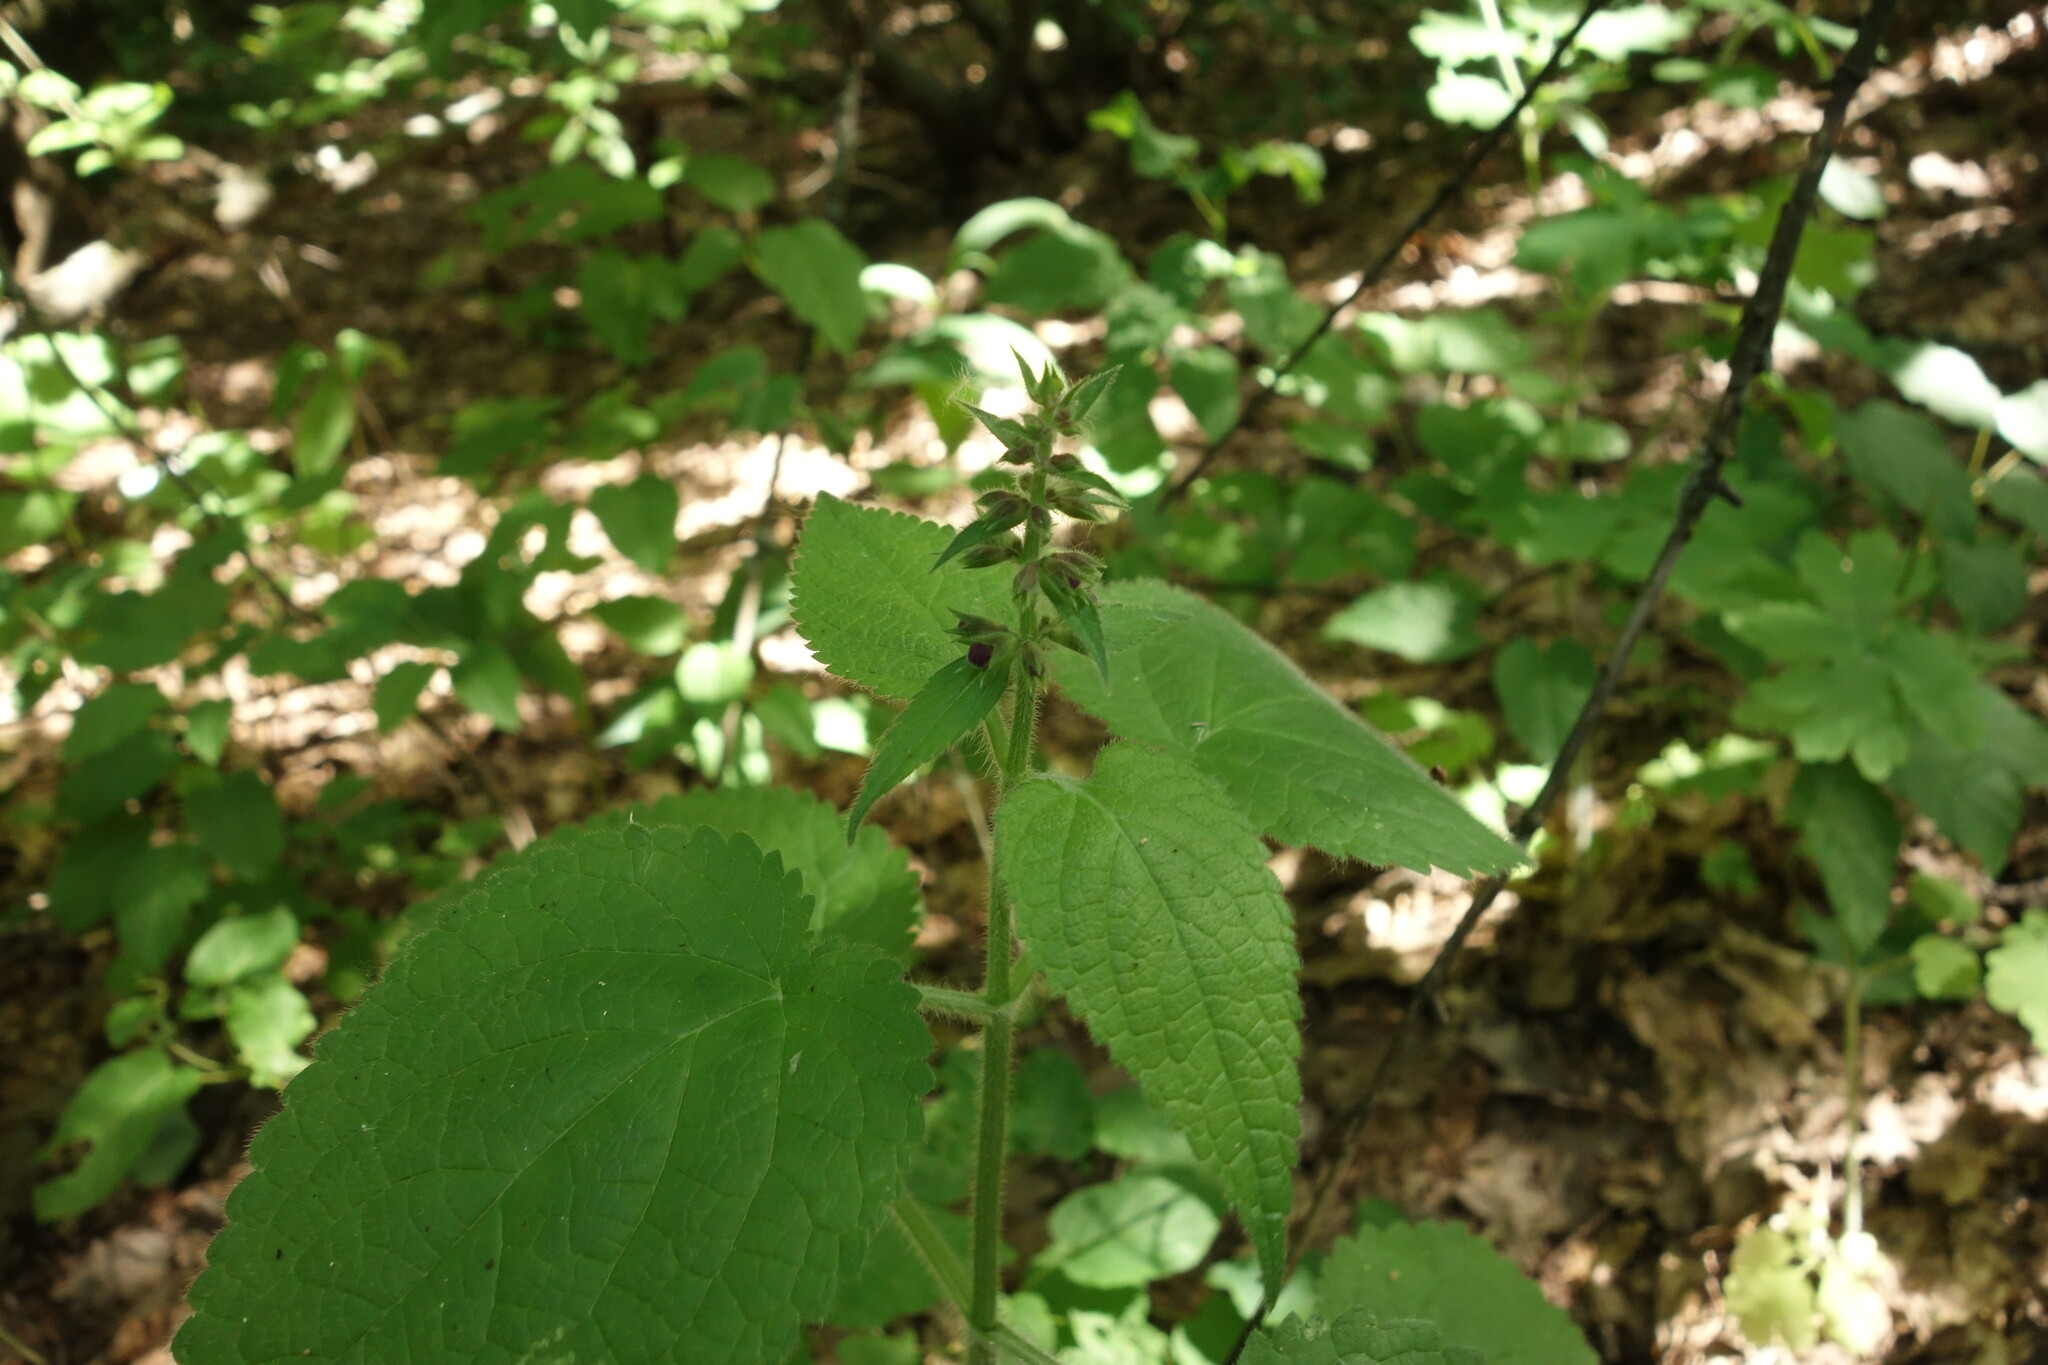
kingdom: Plantae
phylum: Tracheophyta
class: Magnoliopsida
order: Lamiales
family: Lamiaceae
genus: Stachys
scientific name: Stachys sylvatica
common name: Hedge woundwort
